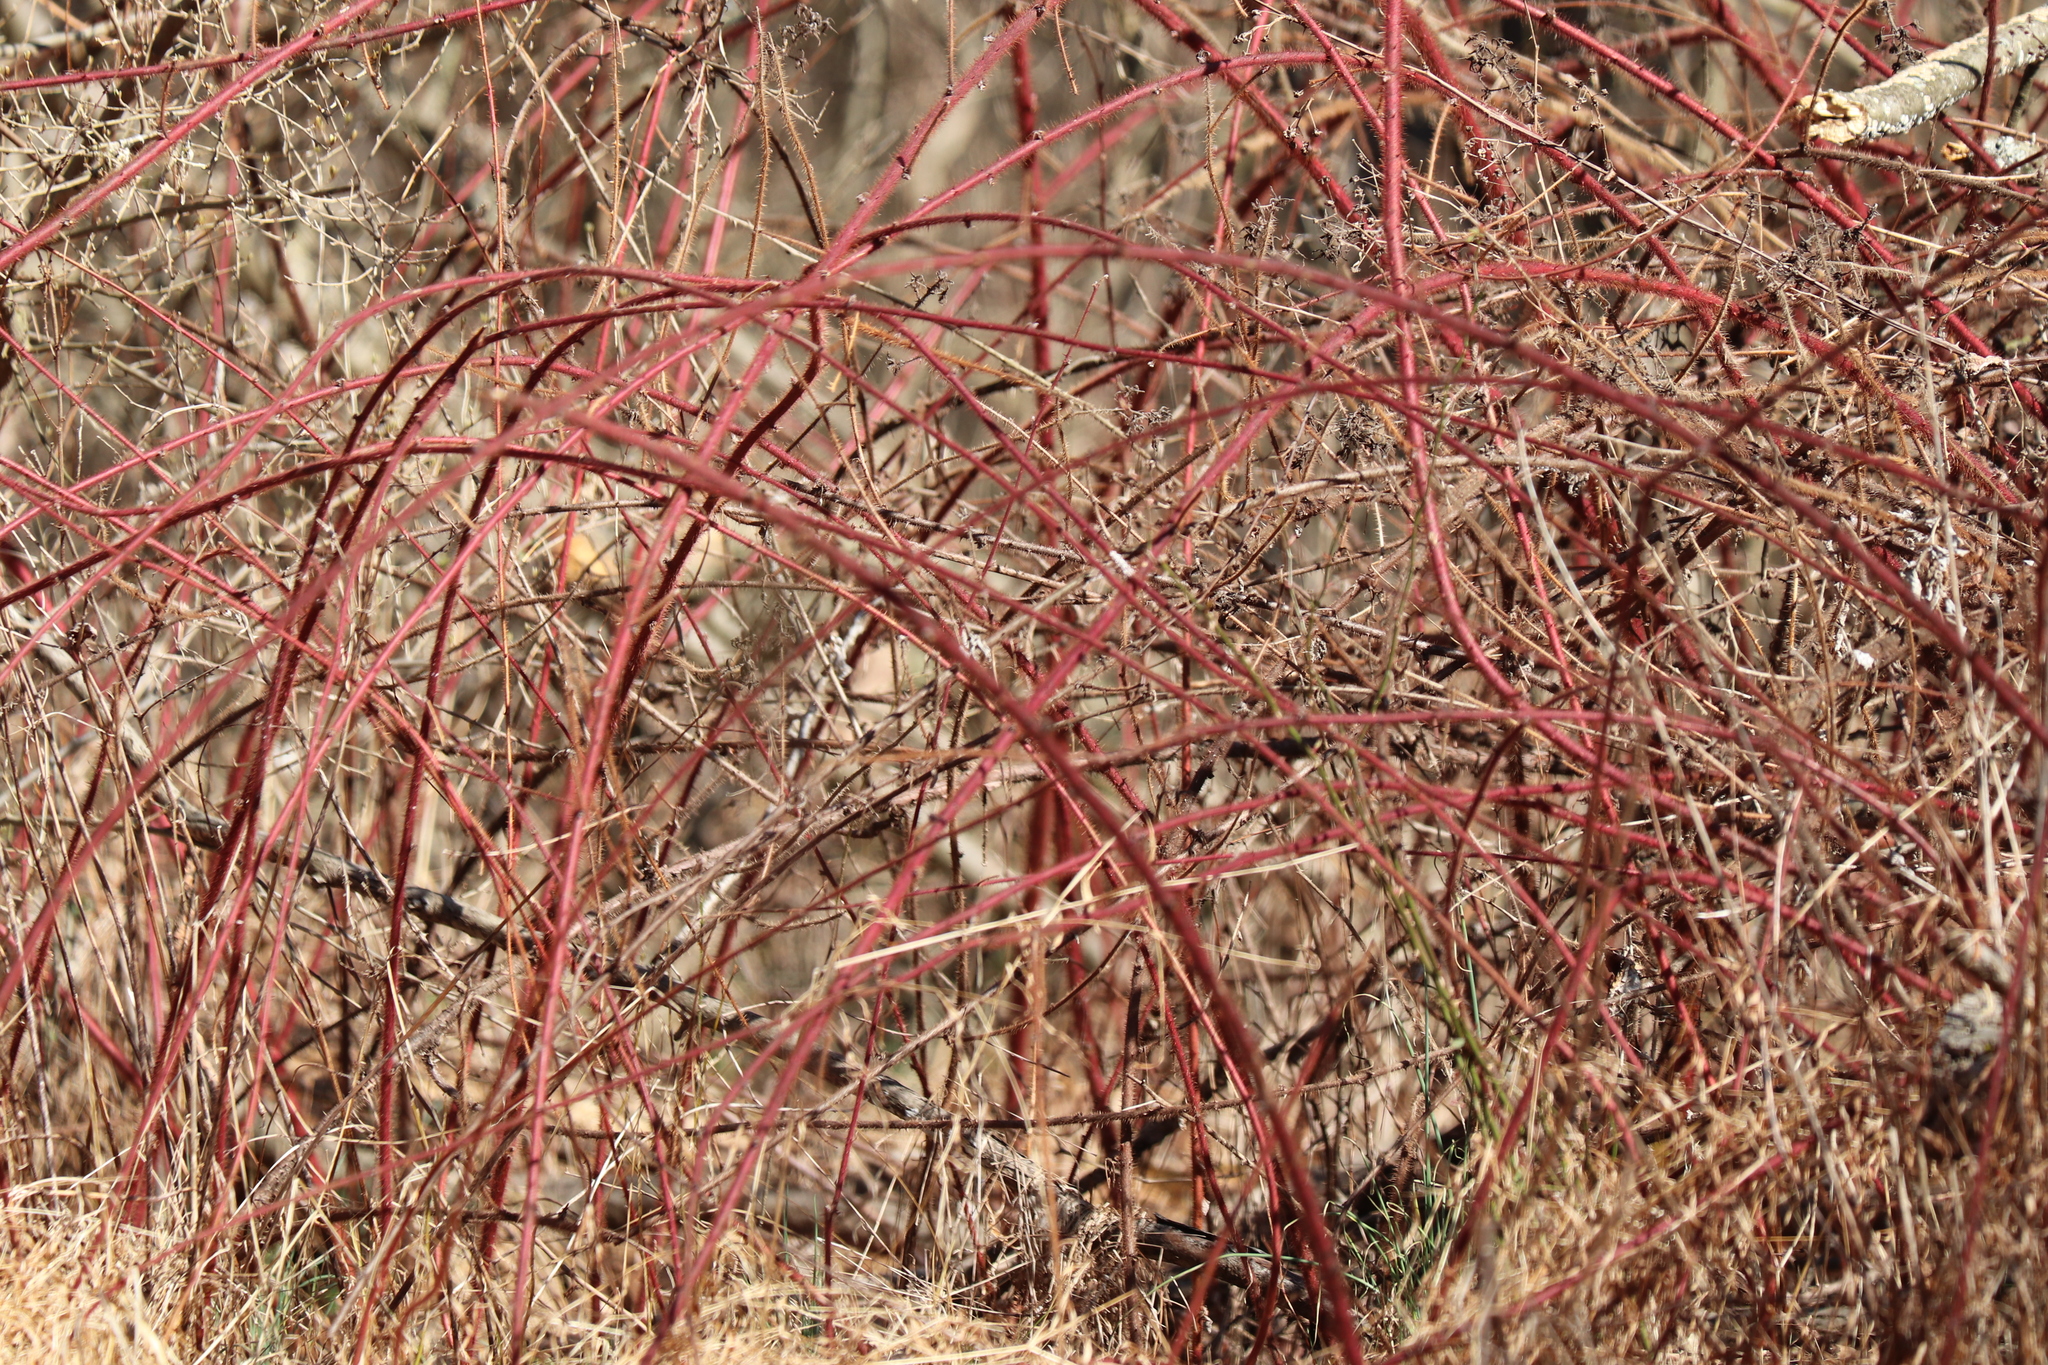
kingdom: Plantae
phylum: Tracheophyta
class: Magnoliopsida
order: Rosales
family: Rosaceae
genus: Rubus
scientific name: Rubus phoenicolasius
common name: Japanese wineberry
